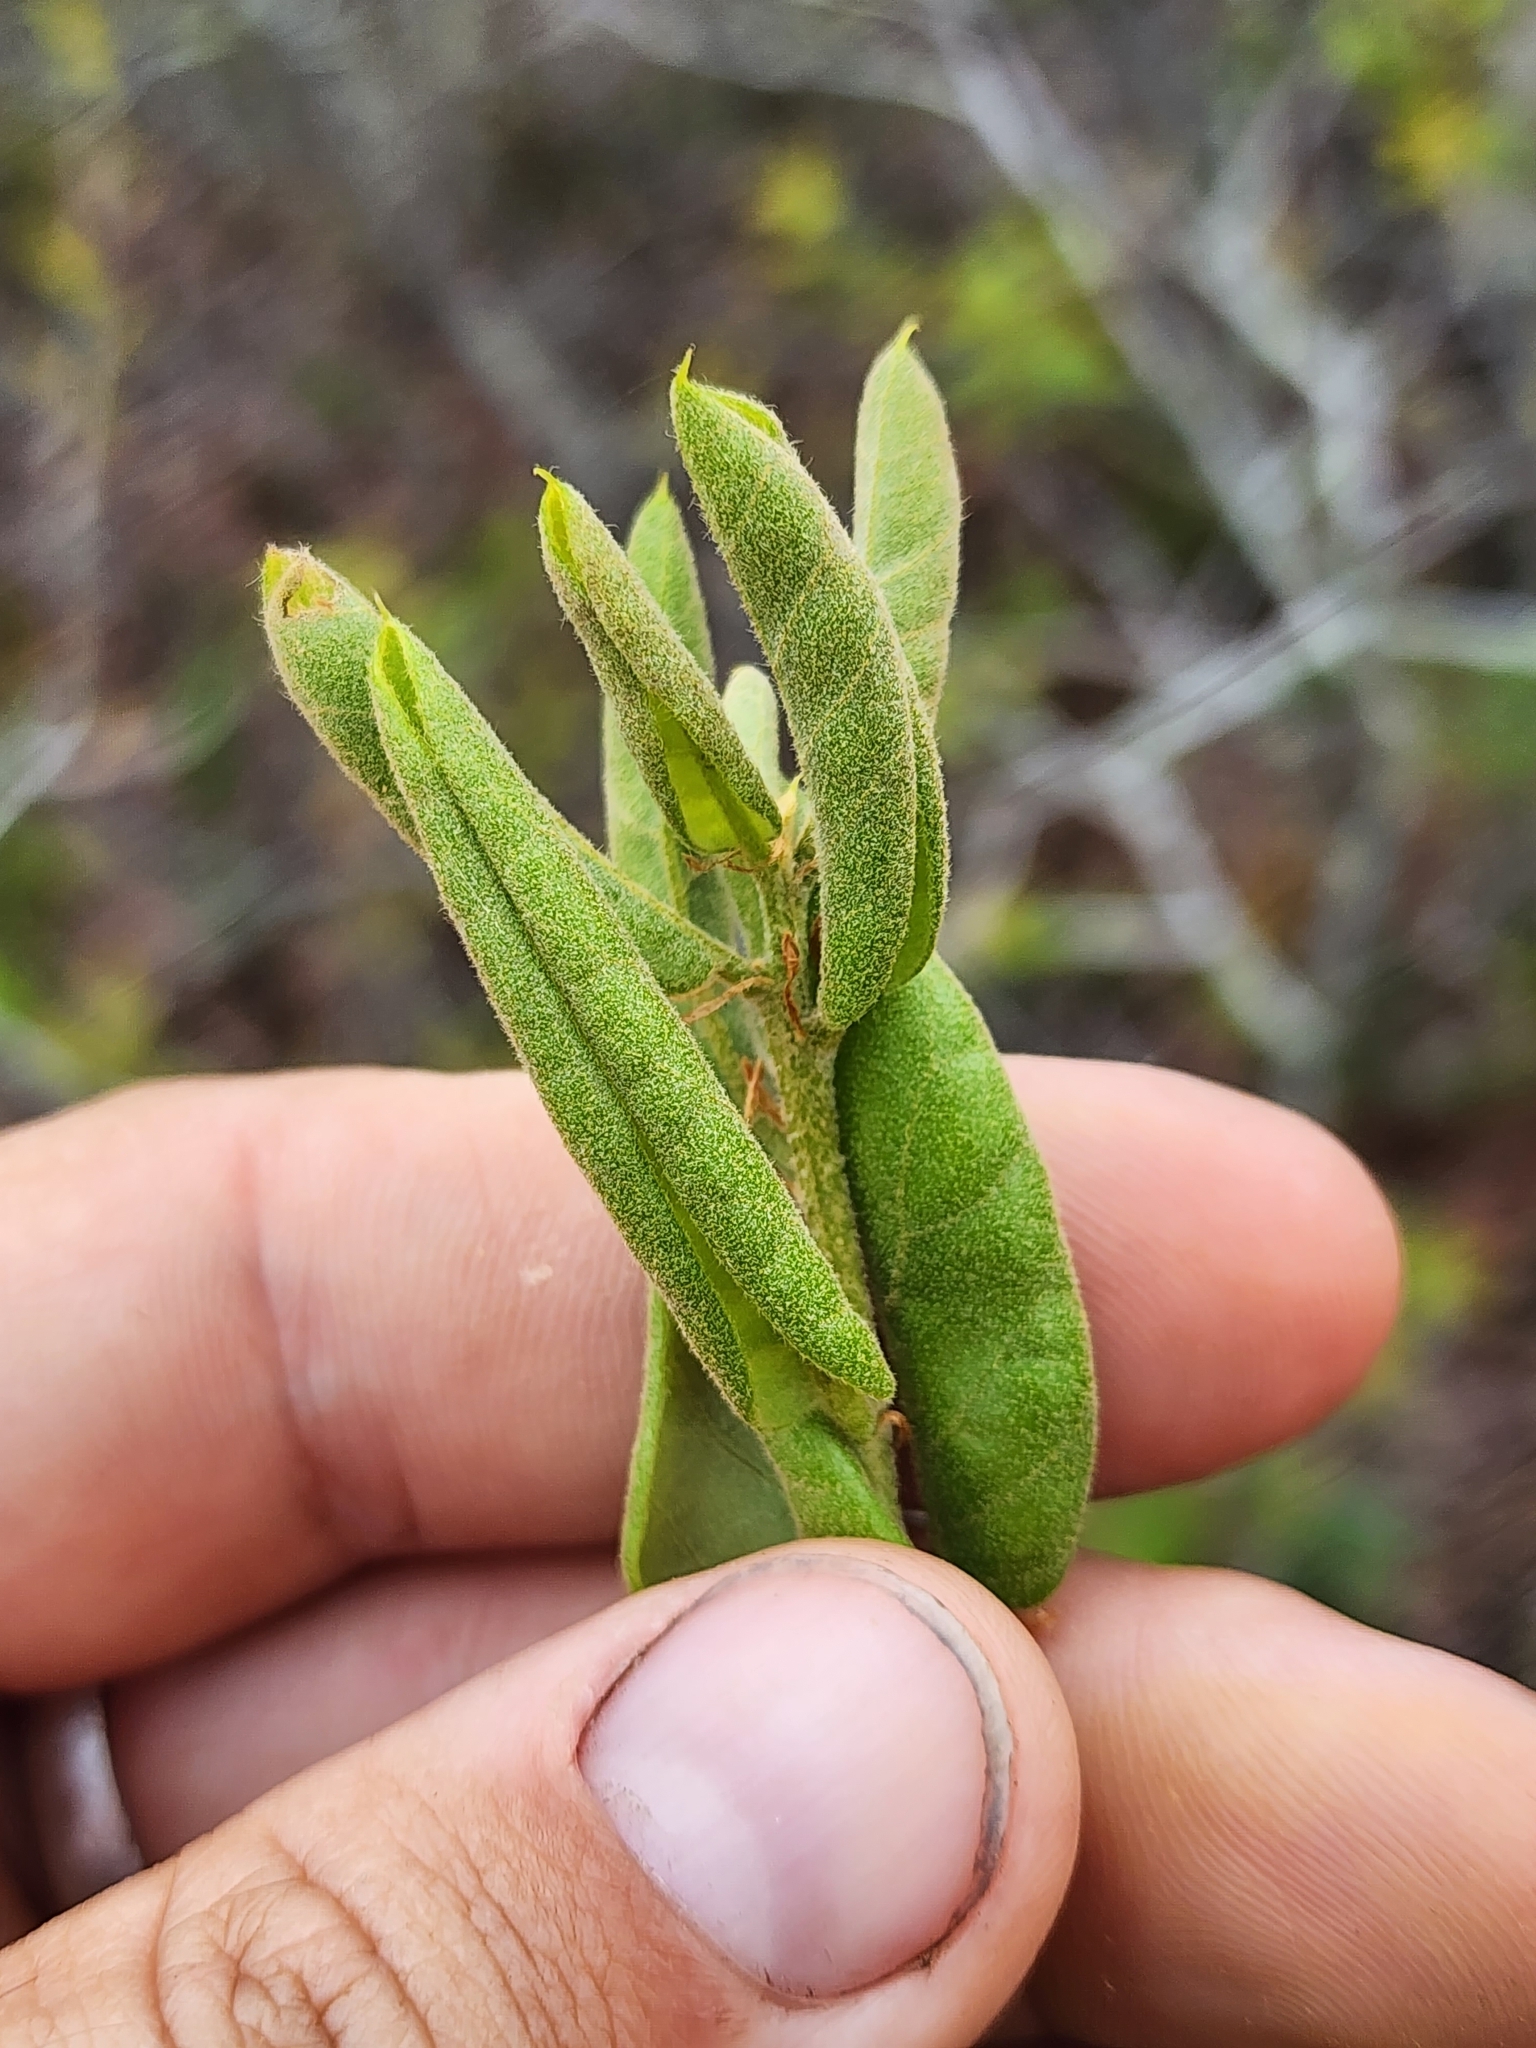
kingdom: Plantae
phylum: Tracheophyta
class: Magnoliopsida
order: Fagales
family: Fagaceae
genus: Quercus
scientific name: Quercus inopina
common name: Sandhill oak
